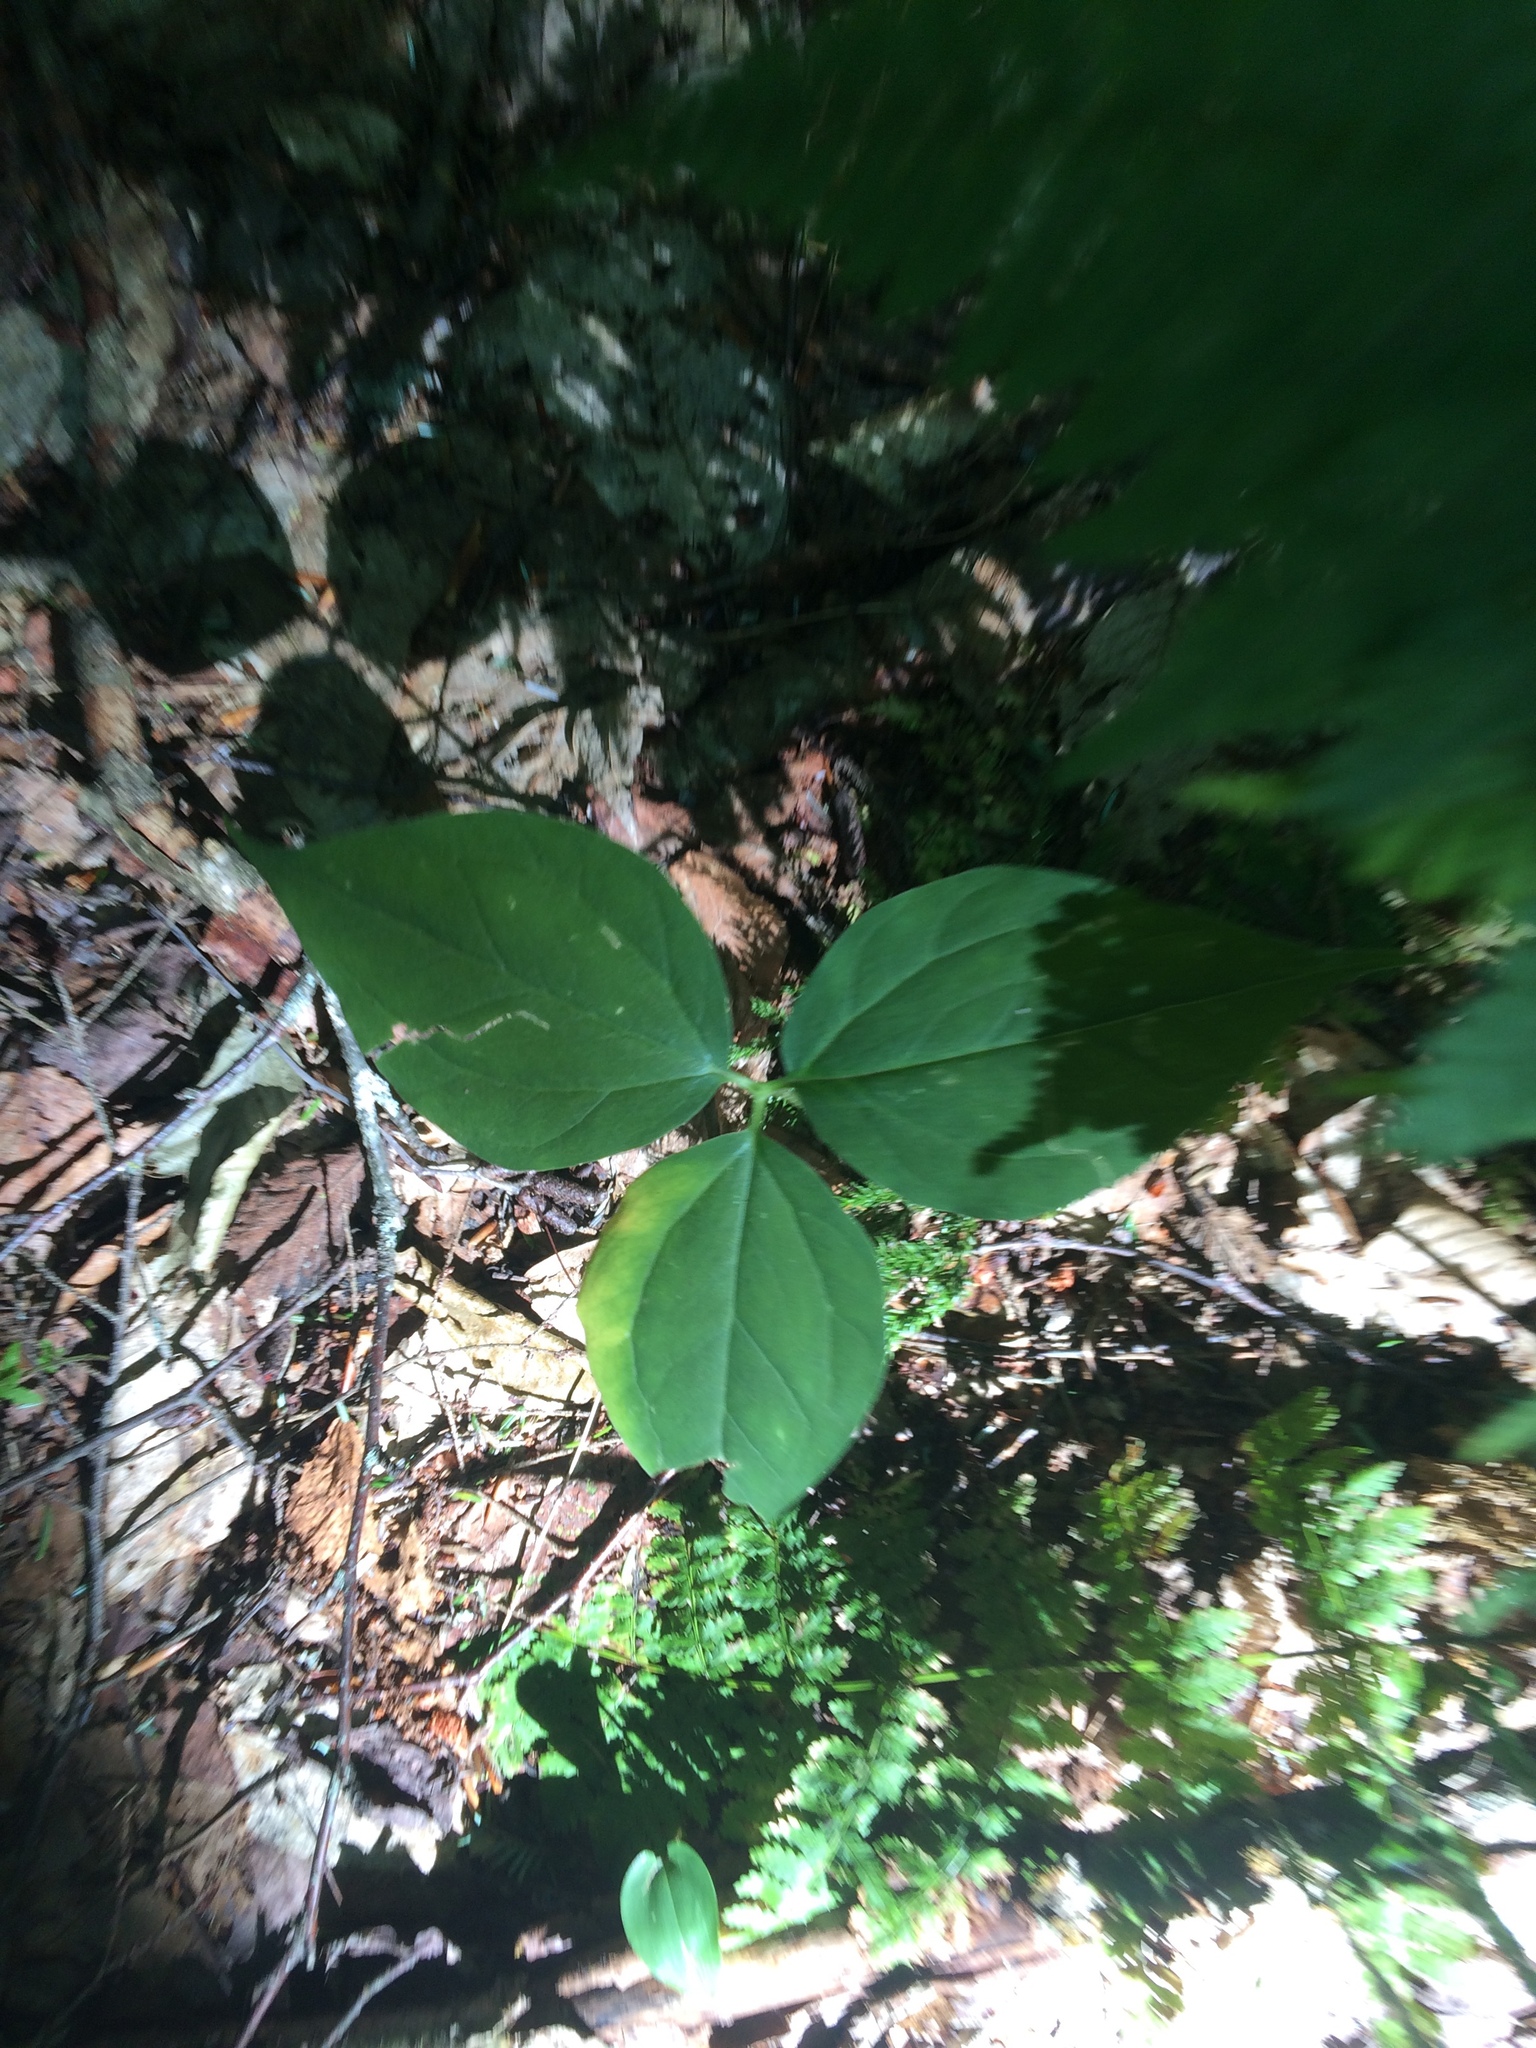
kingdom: Plantae
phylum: Tracheophyta
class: Liliopsida
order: Liliales
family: Melanthiaceae
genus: Trillium
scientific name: Trillium undulatum
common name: Paint trillium
